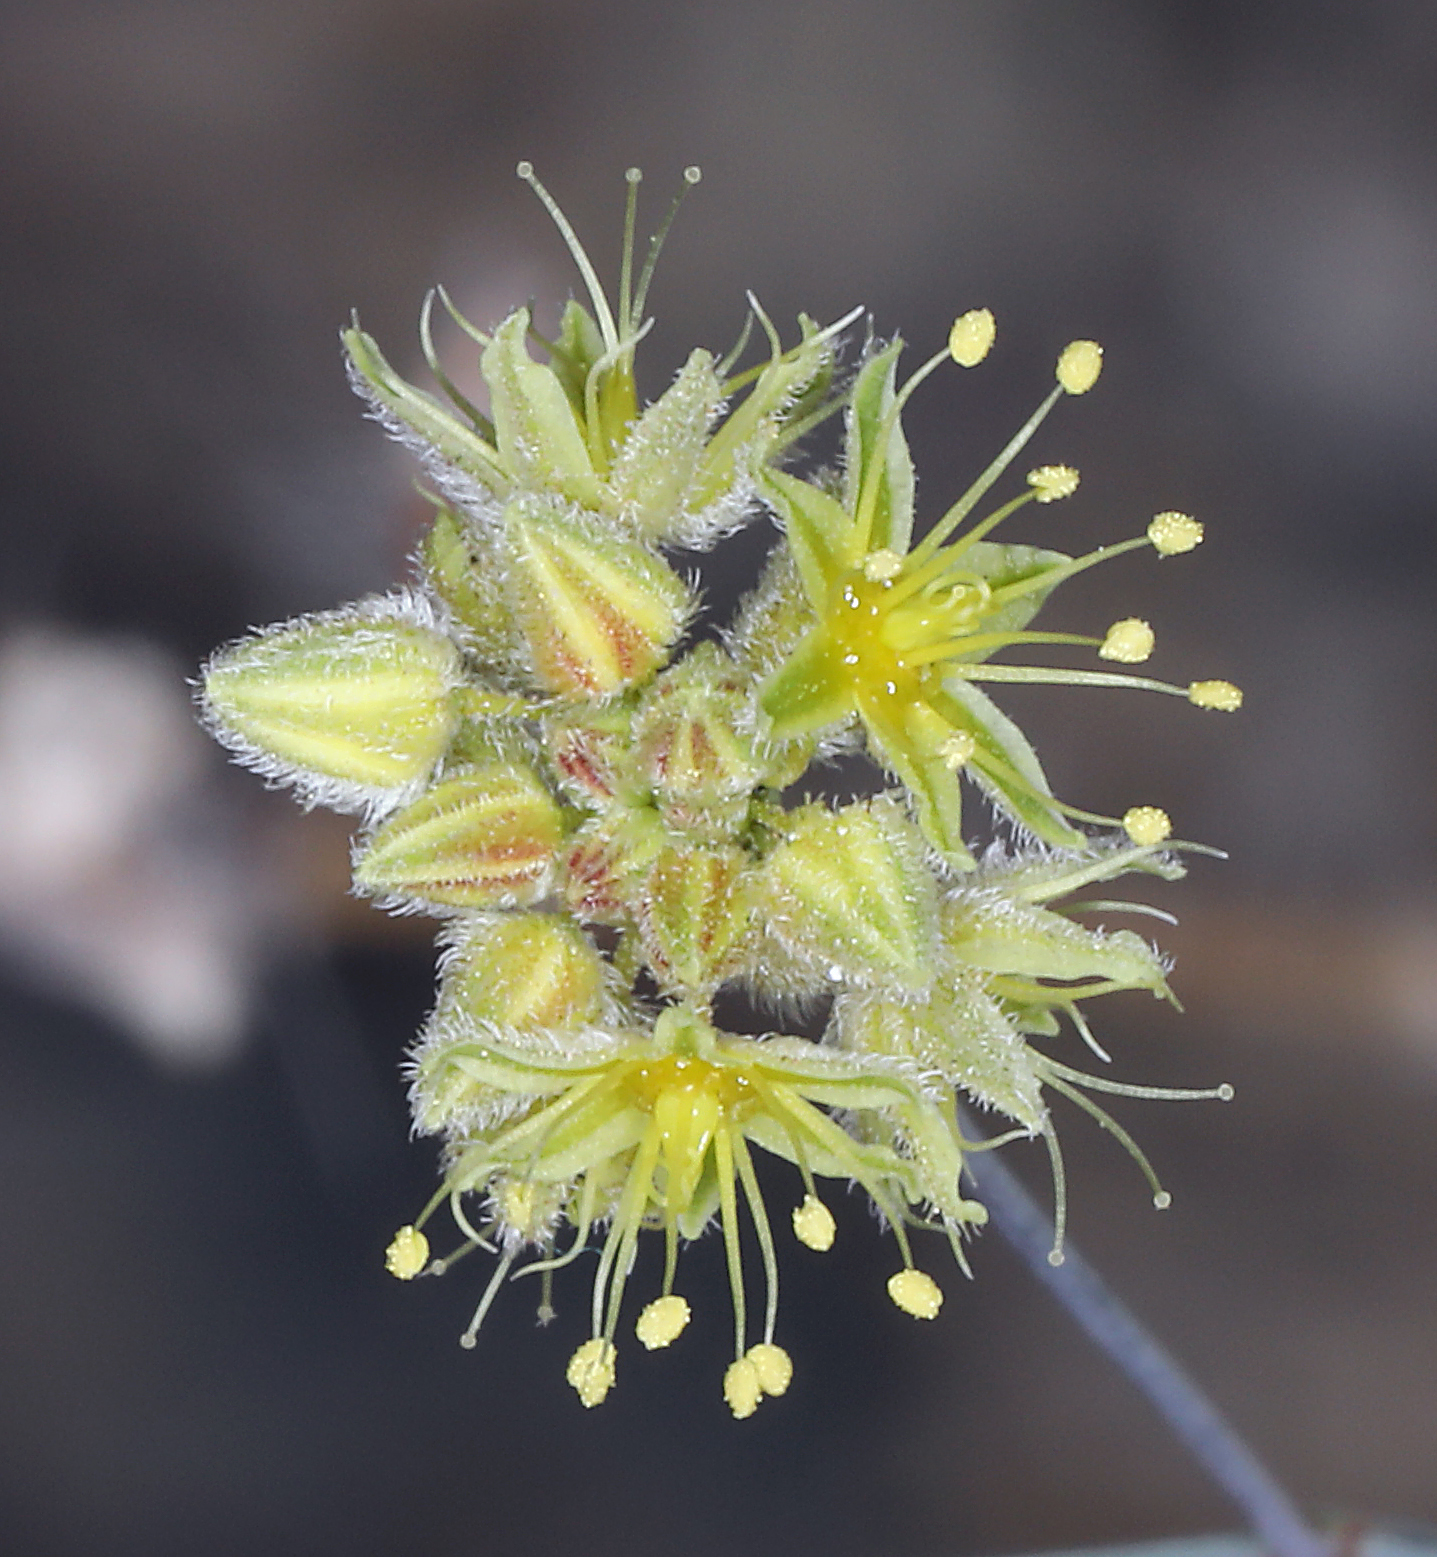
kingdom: Plantae
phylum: Tracheophyta
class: Magnoliopsida
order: Caryophyllales
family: Polygonaceae
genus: Eriogonum
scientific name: Eriogonum inflatum
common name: Desert trumpet
